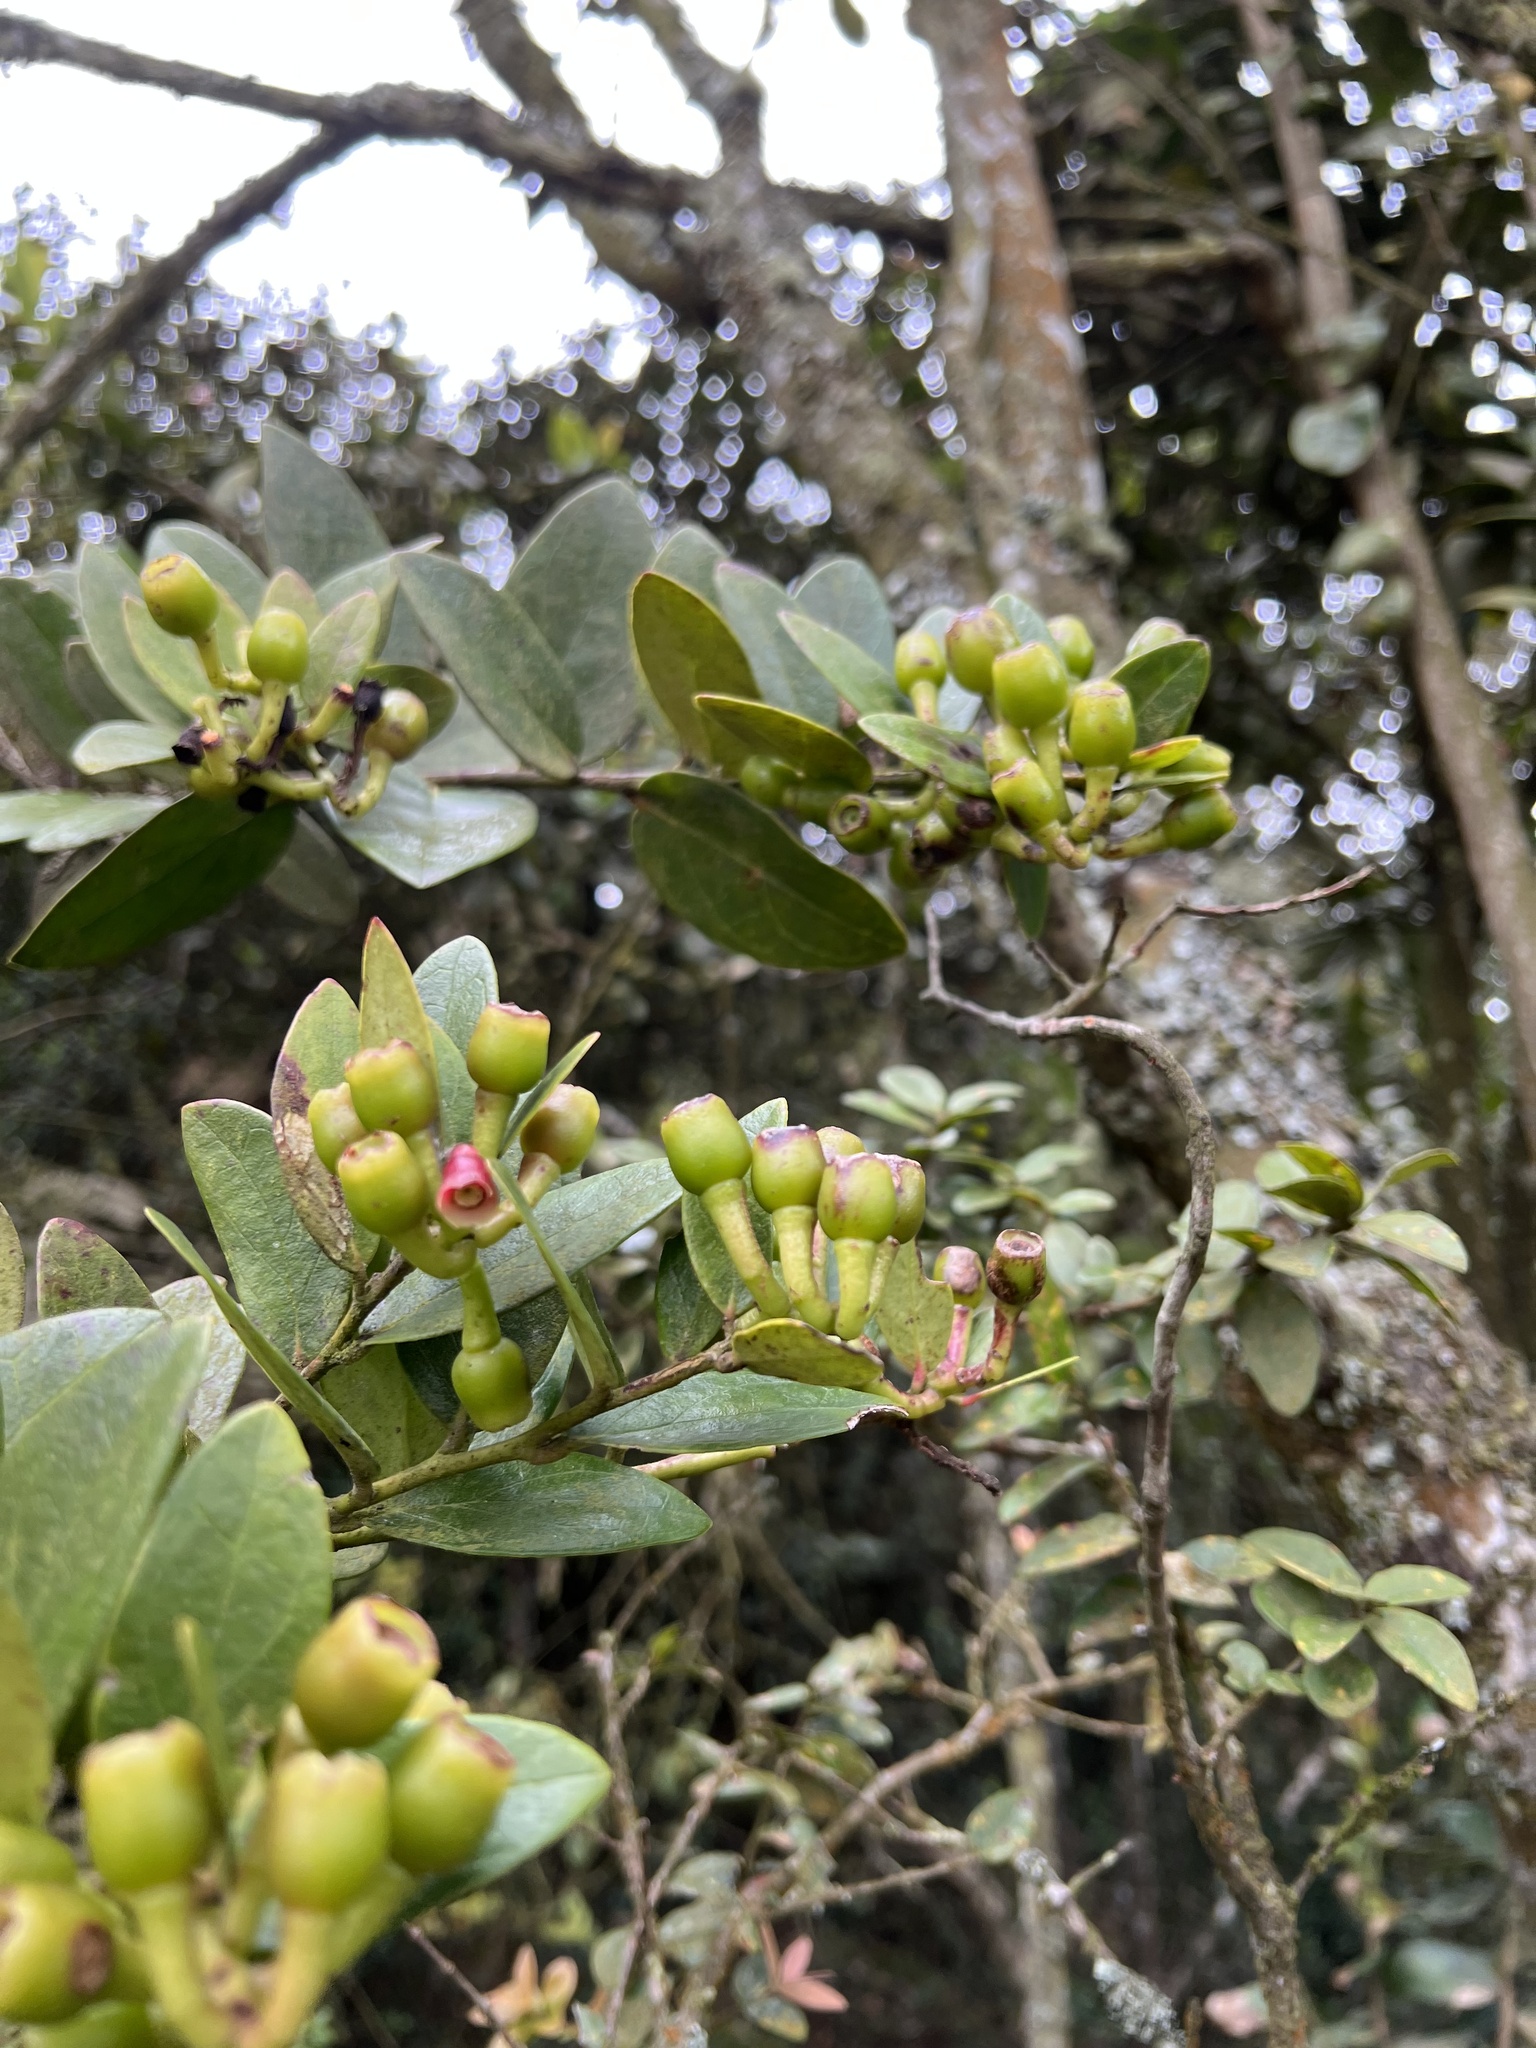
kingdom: Plantae
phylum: Tracheophyta
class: Magnoliopsida
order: Ericales
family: Ericaceae
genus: Macleania
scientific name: Macleania rupestris
